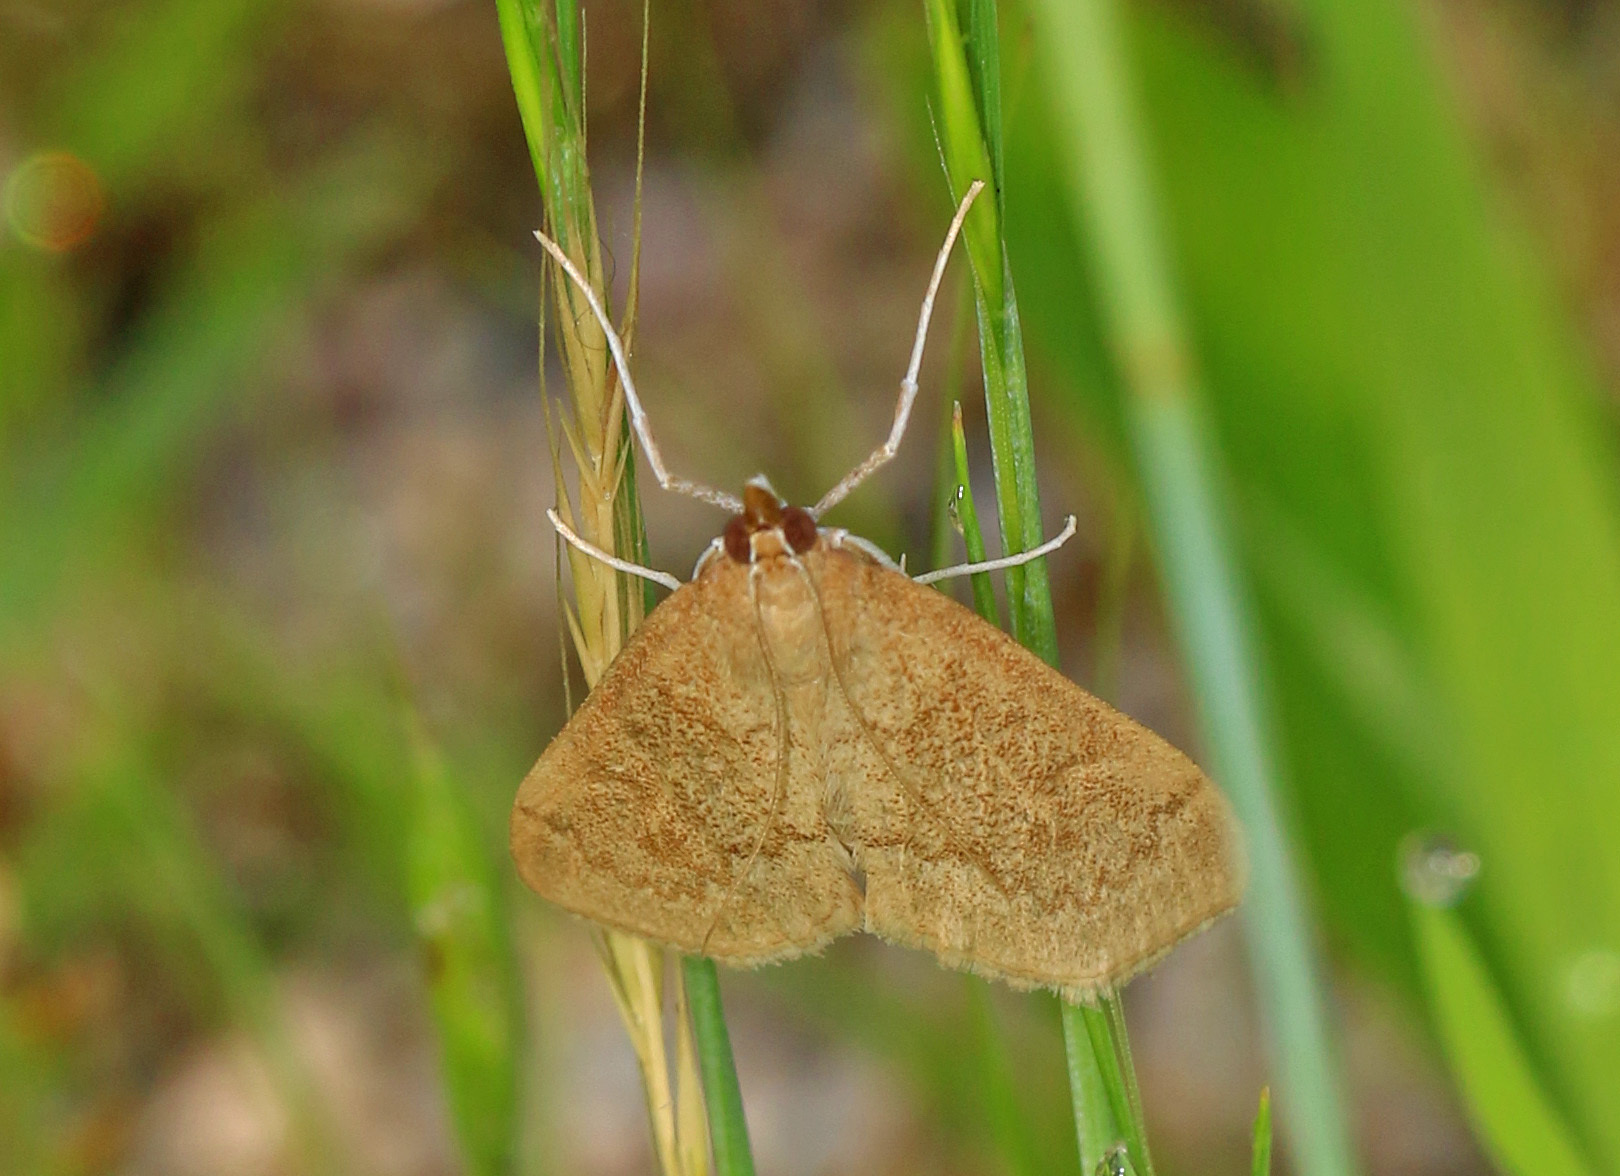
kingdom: Animalia
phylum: Arthropoda
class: Insecta
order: Lepidoptera
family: Crambidae
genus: Saucrobotys
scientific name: Saucrobotys futilalis
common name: Dogbane saucrobotys moth
